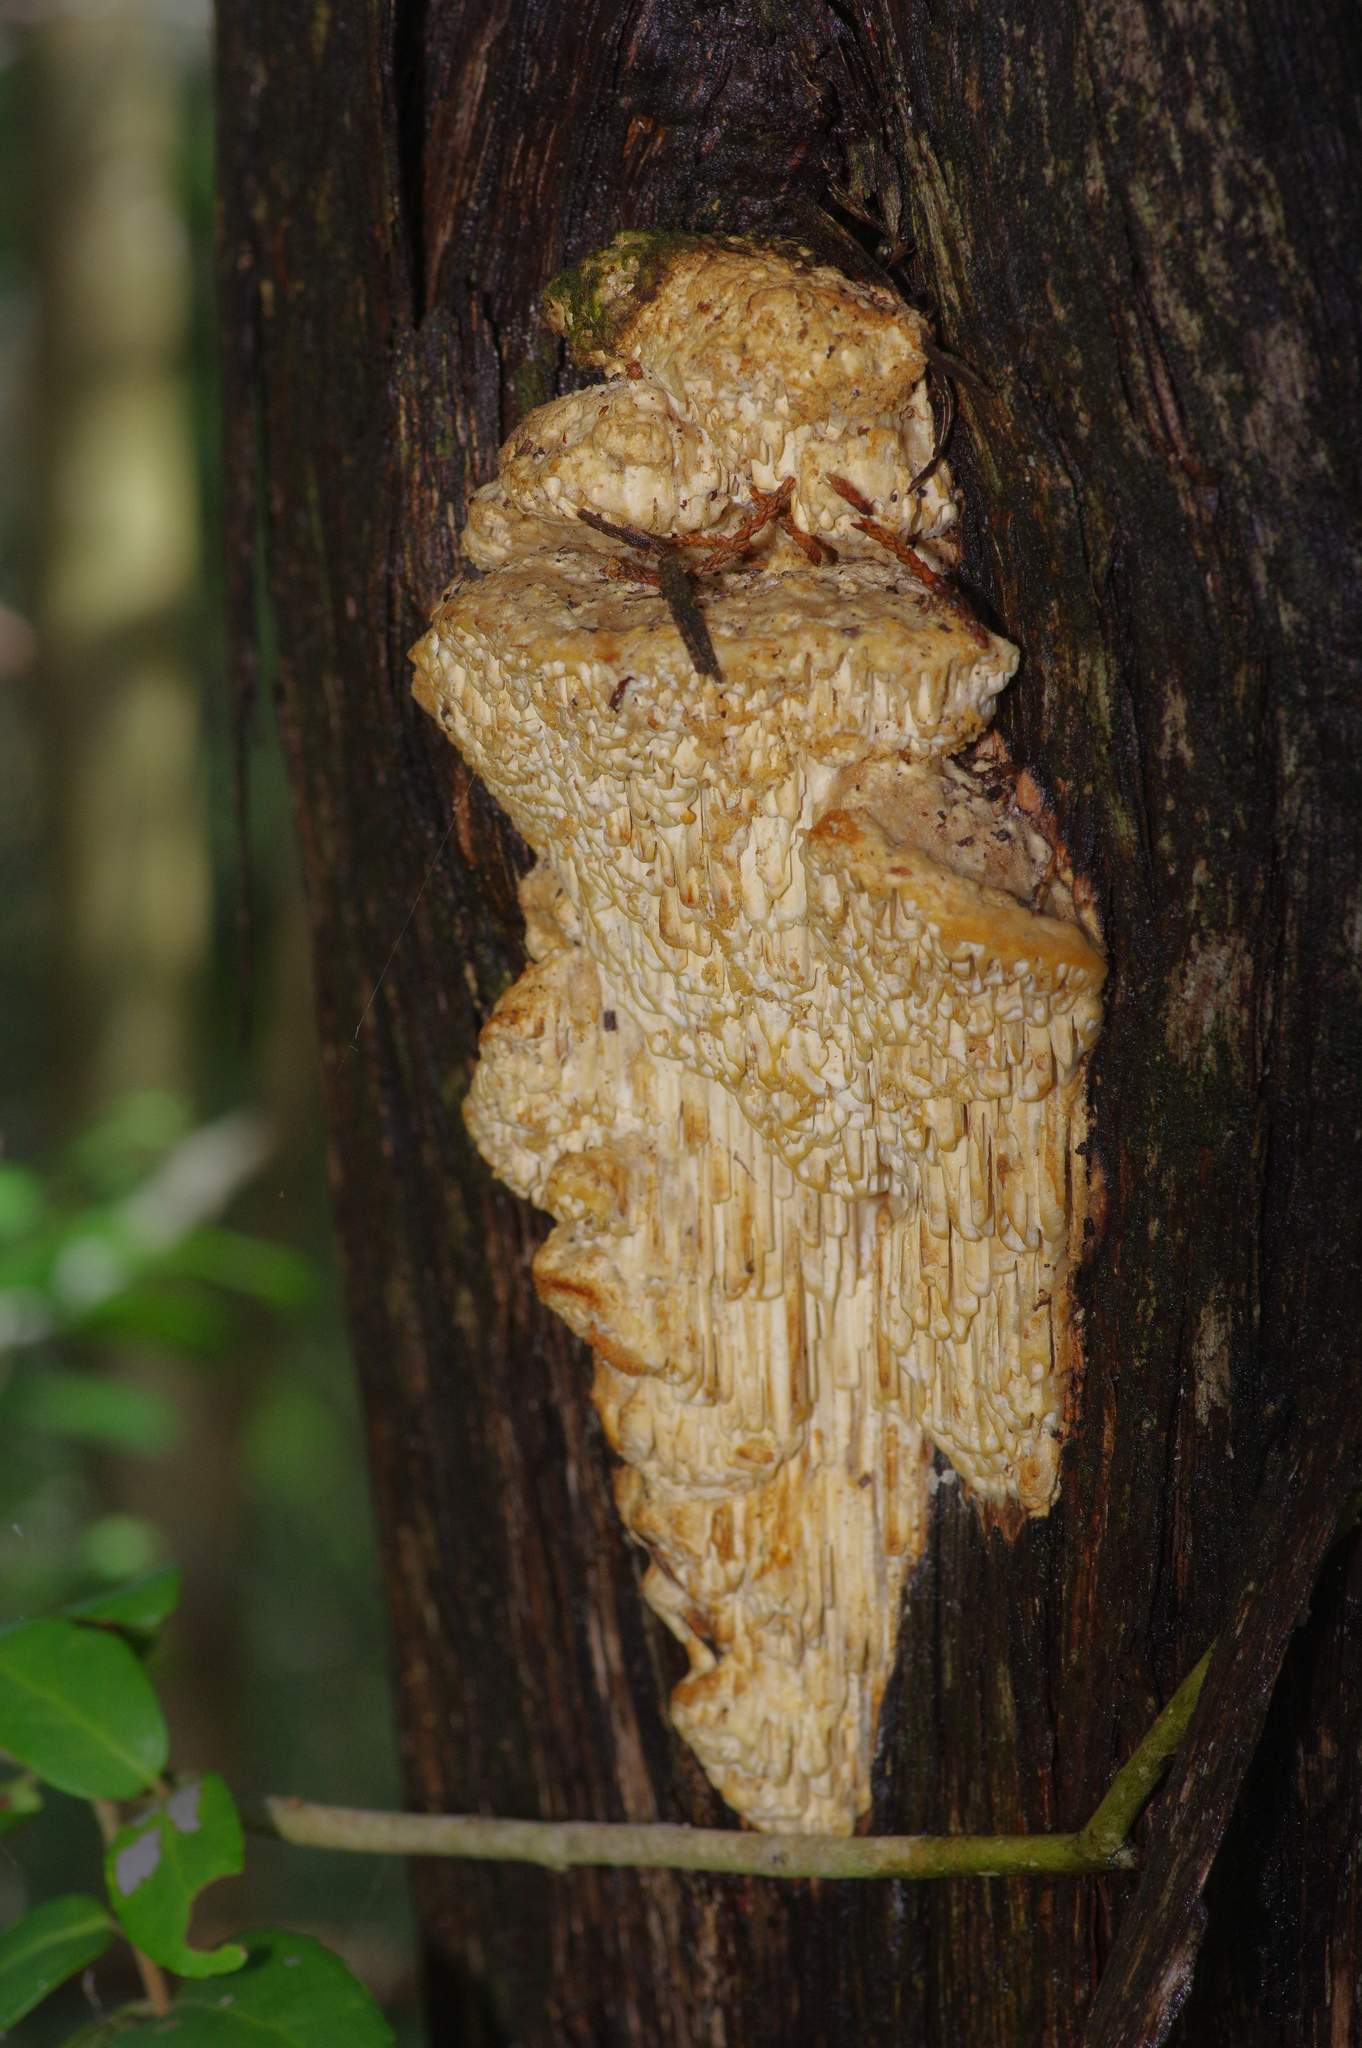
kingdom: Fungi
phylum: Basidiomycota
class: Agaricomycetes
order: Polyporales
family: Fomitopsidaceae
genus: Fomitopsis
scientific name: Fomitopsis
